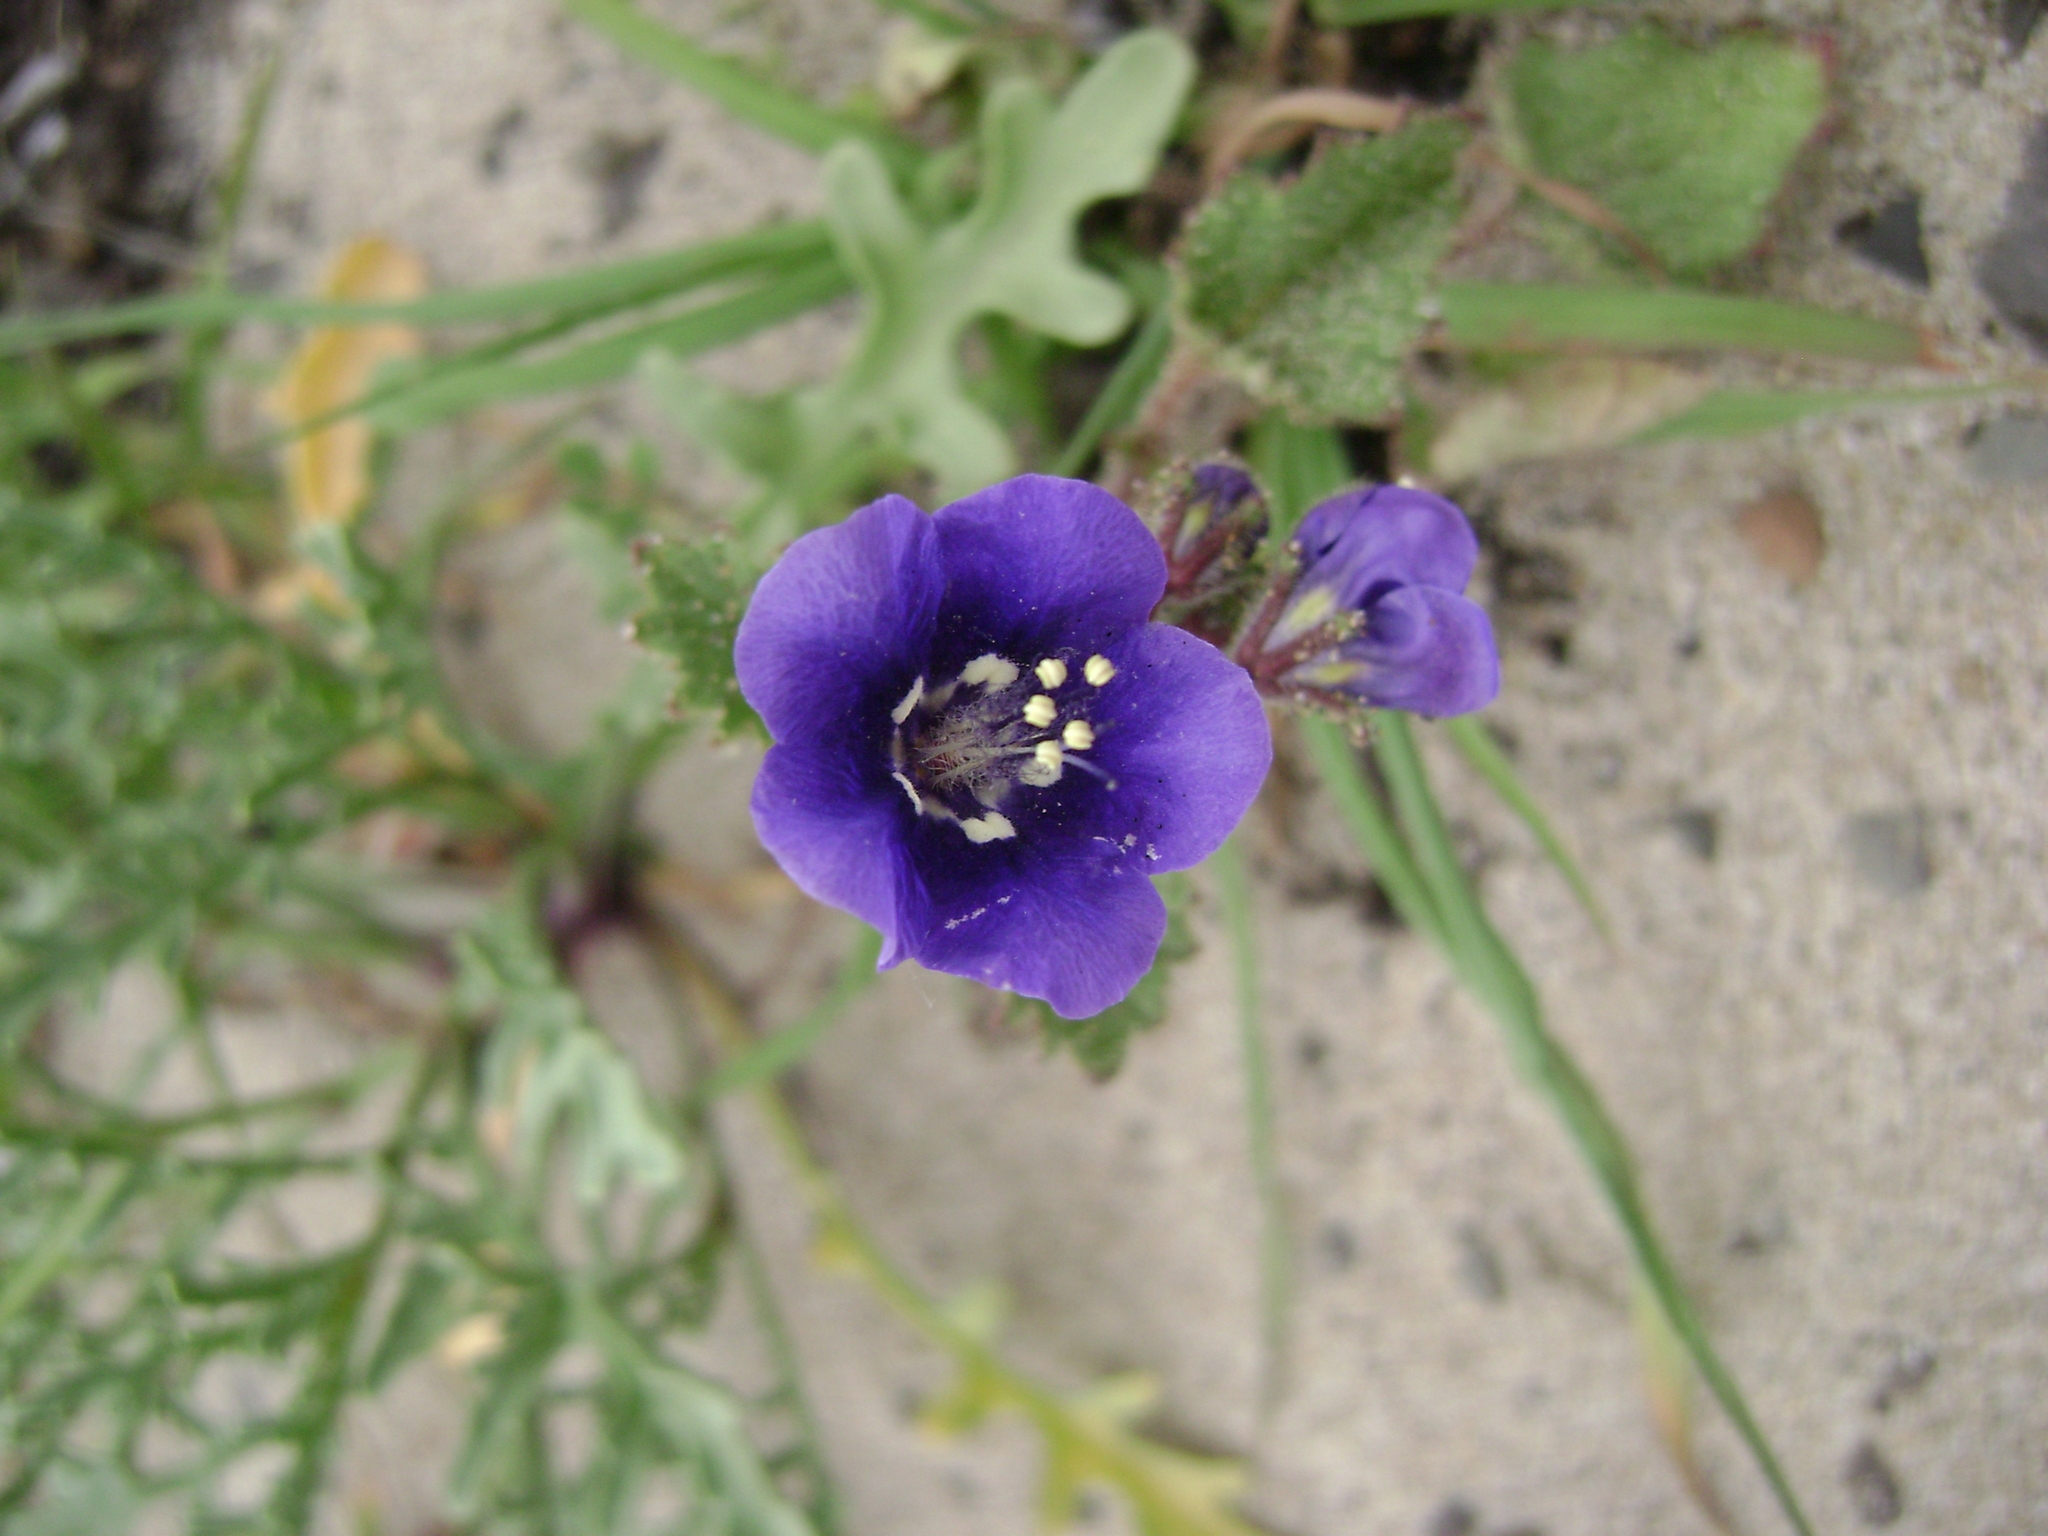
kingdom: Plantae
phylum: Tracheophyta
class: Magnoliopsida
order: Boraginales
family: Hydrophyllaceae
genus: Phacelia
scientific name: Phacelia parryi
